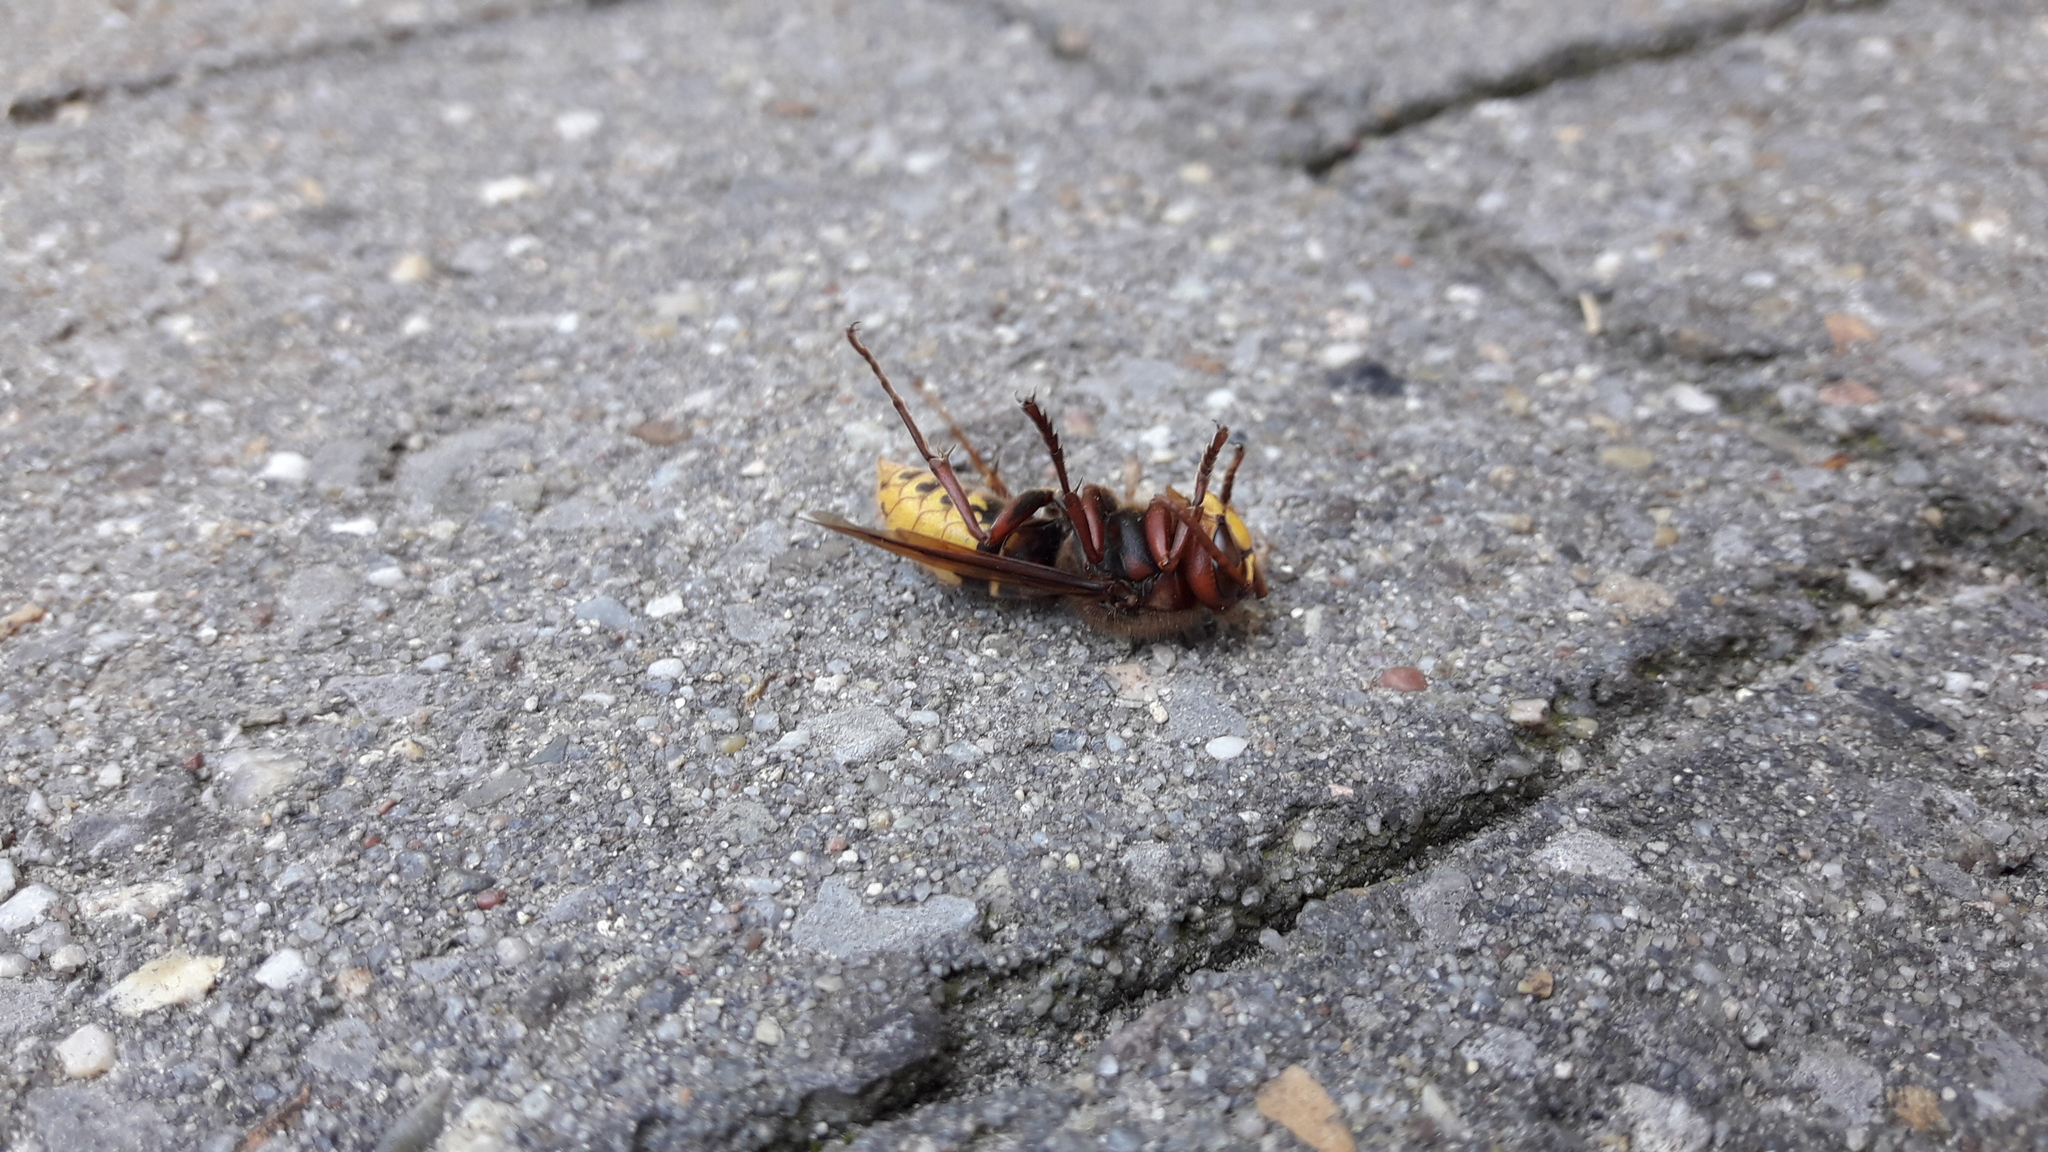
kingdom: Animalia
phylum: Arthropoda
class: Insecta
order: Hymenoptera
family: Vespidae
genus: Vespa
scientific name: Vespa crabro
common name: Hornet
